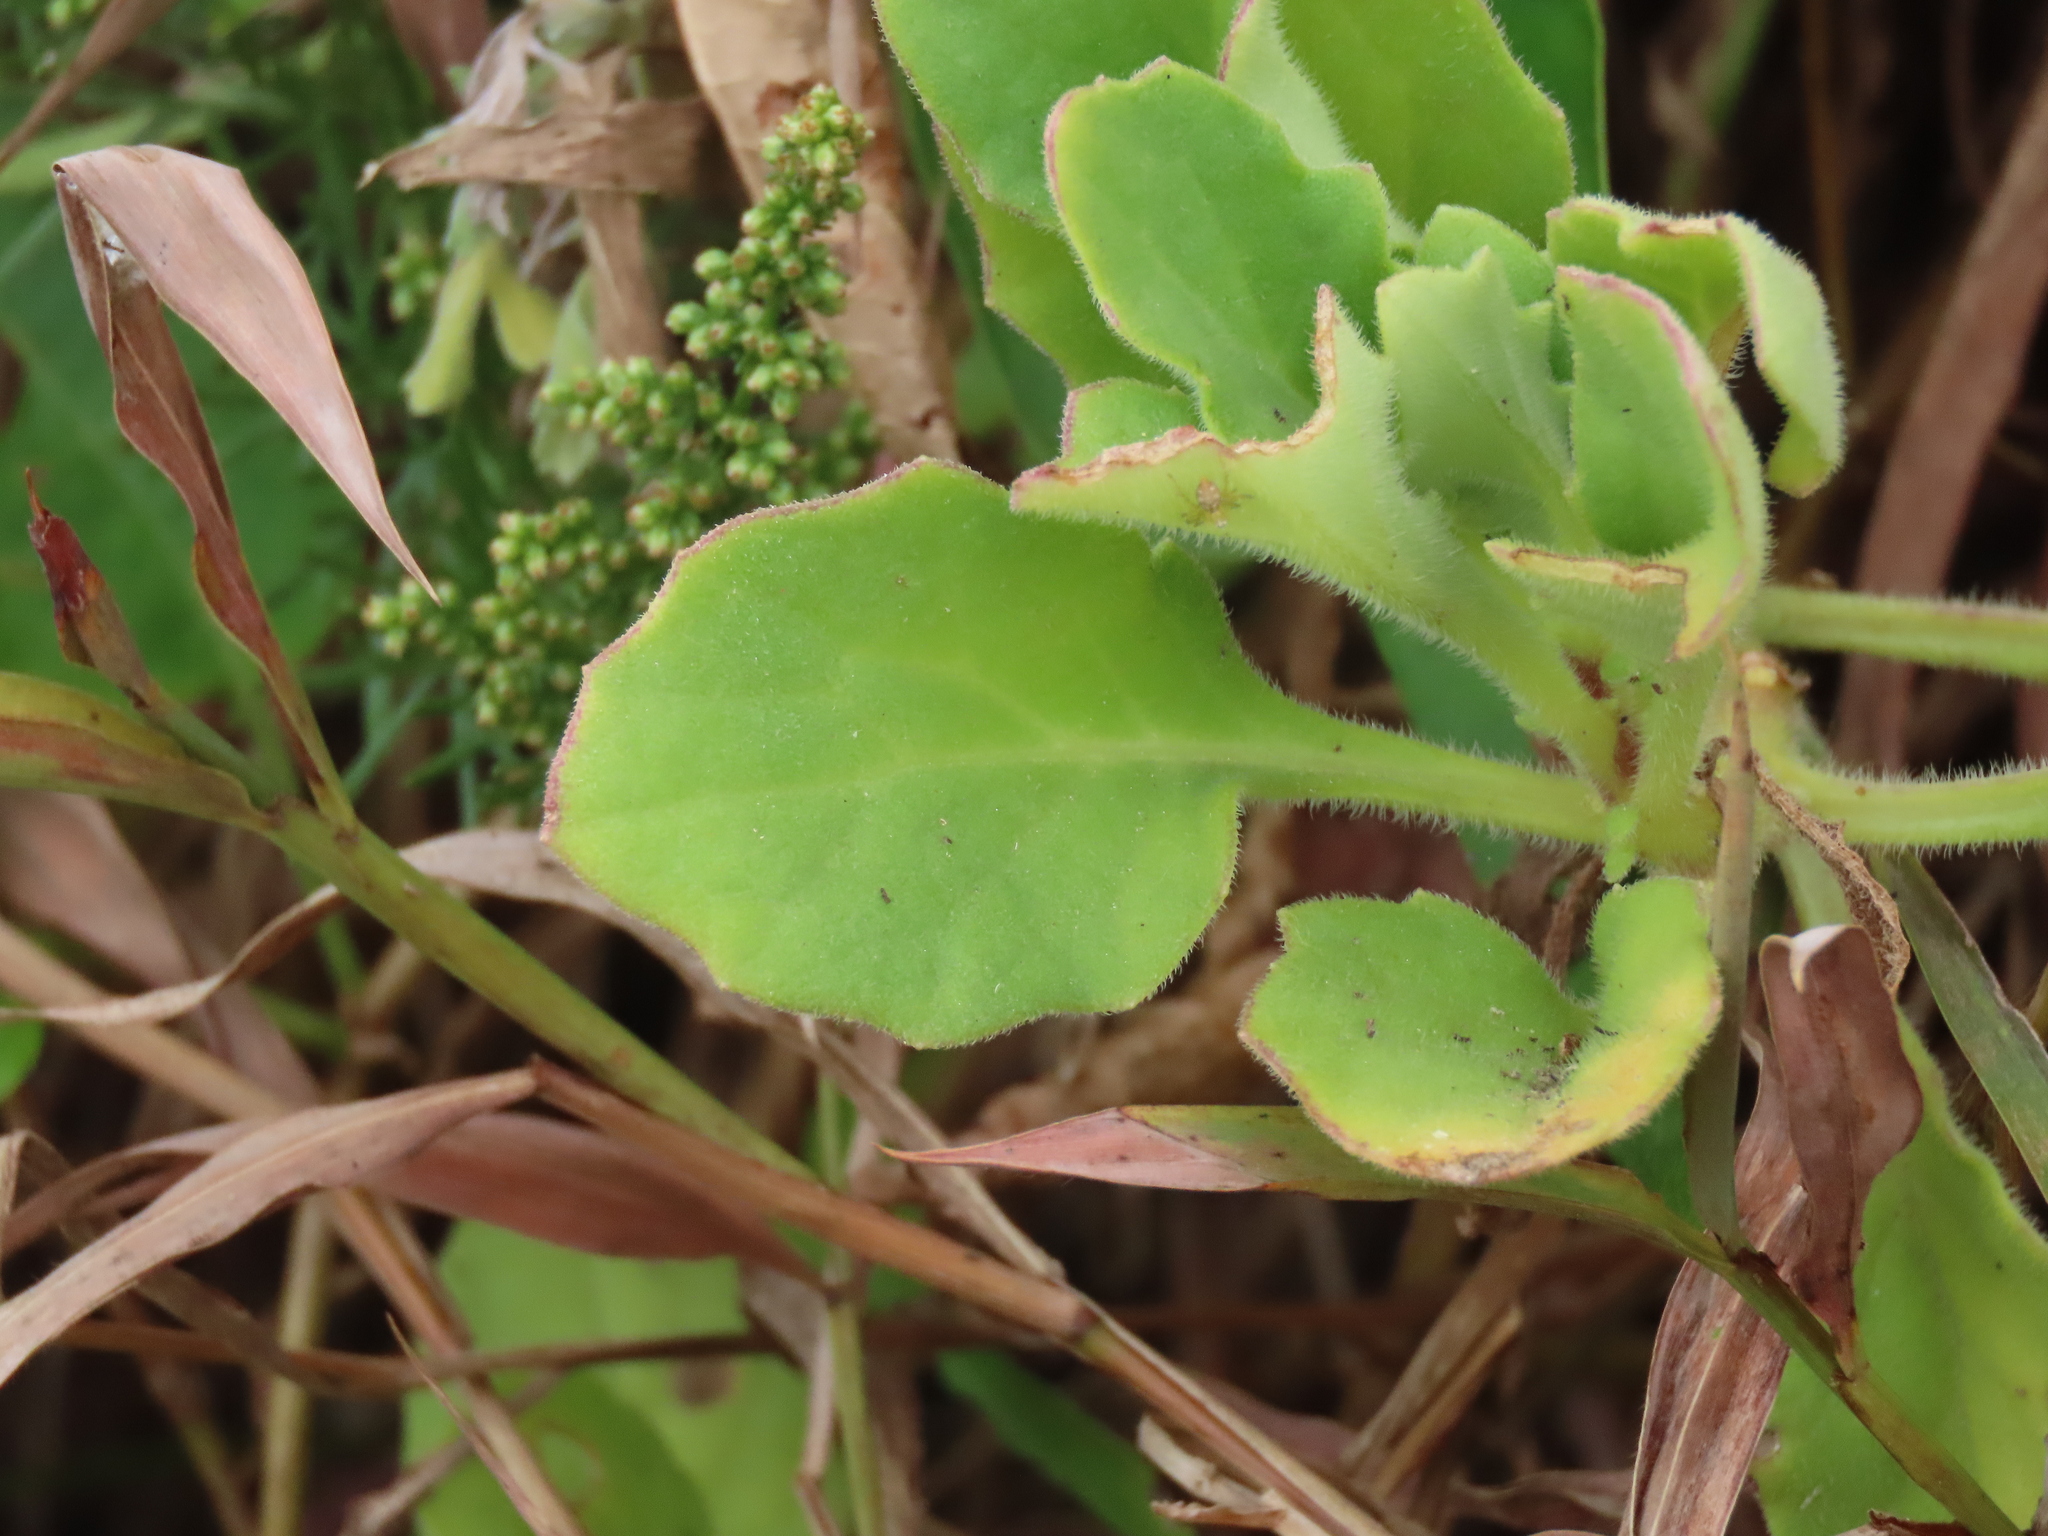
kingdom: Plantae
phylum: Tracheophyta
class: Magnoliopsida
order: Asterales
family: Asteraceae
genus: Gynura
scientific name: Gynura formosana
